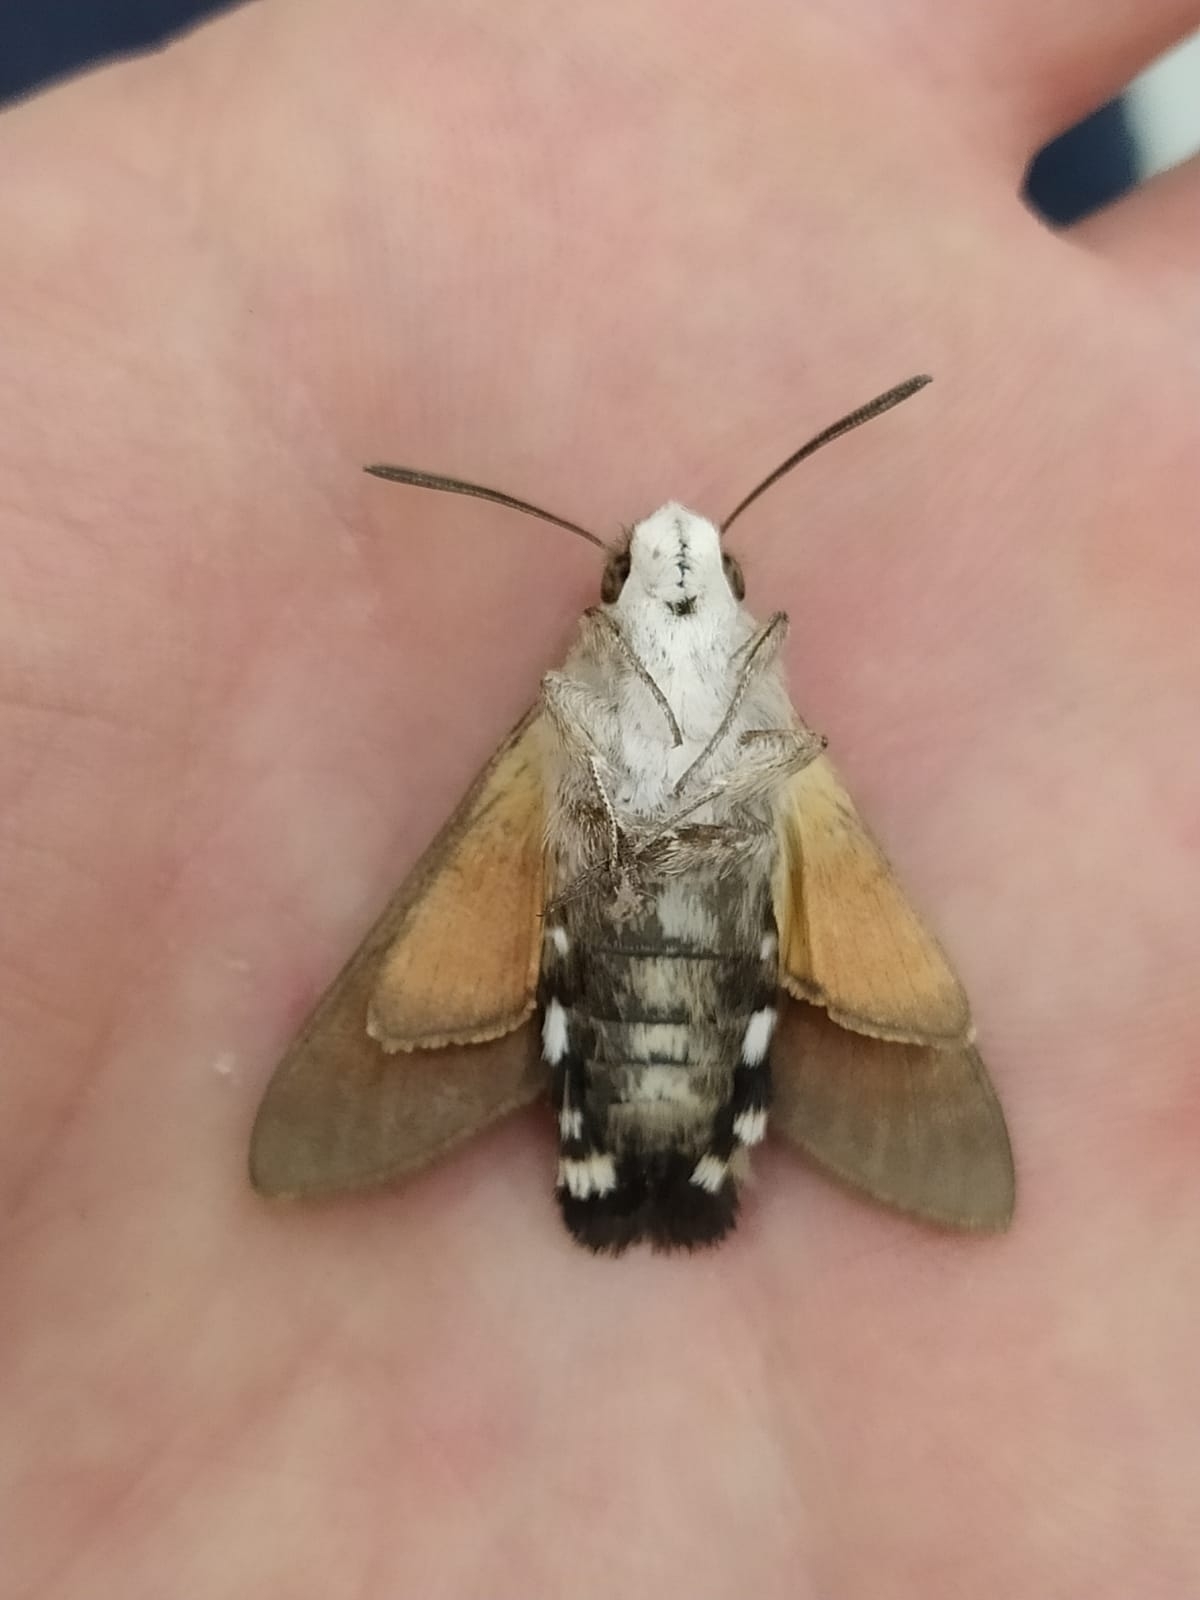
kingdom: Animalia
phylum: Arthropoda
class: Insecta
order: Lepidoptera
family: Sphingidae
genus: Macroglossum
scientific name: Macroglossum stellatarum
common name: Humming-bird hawk-moth
